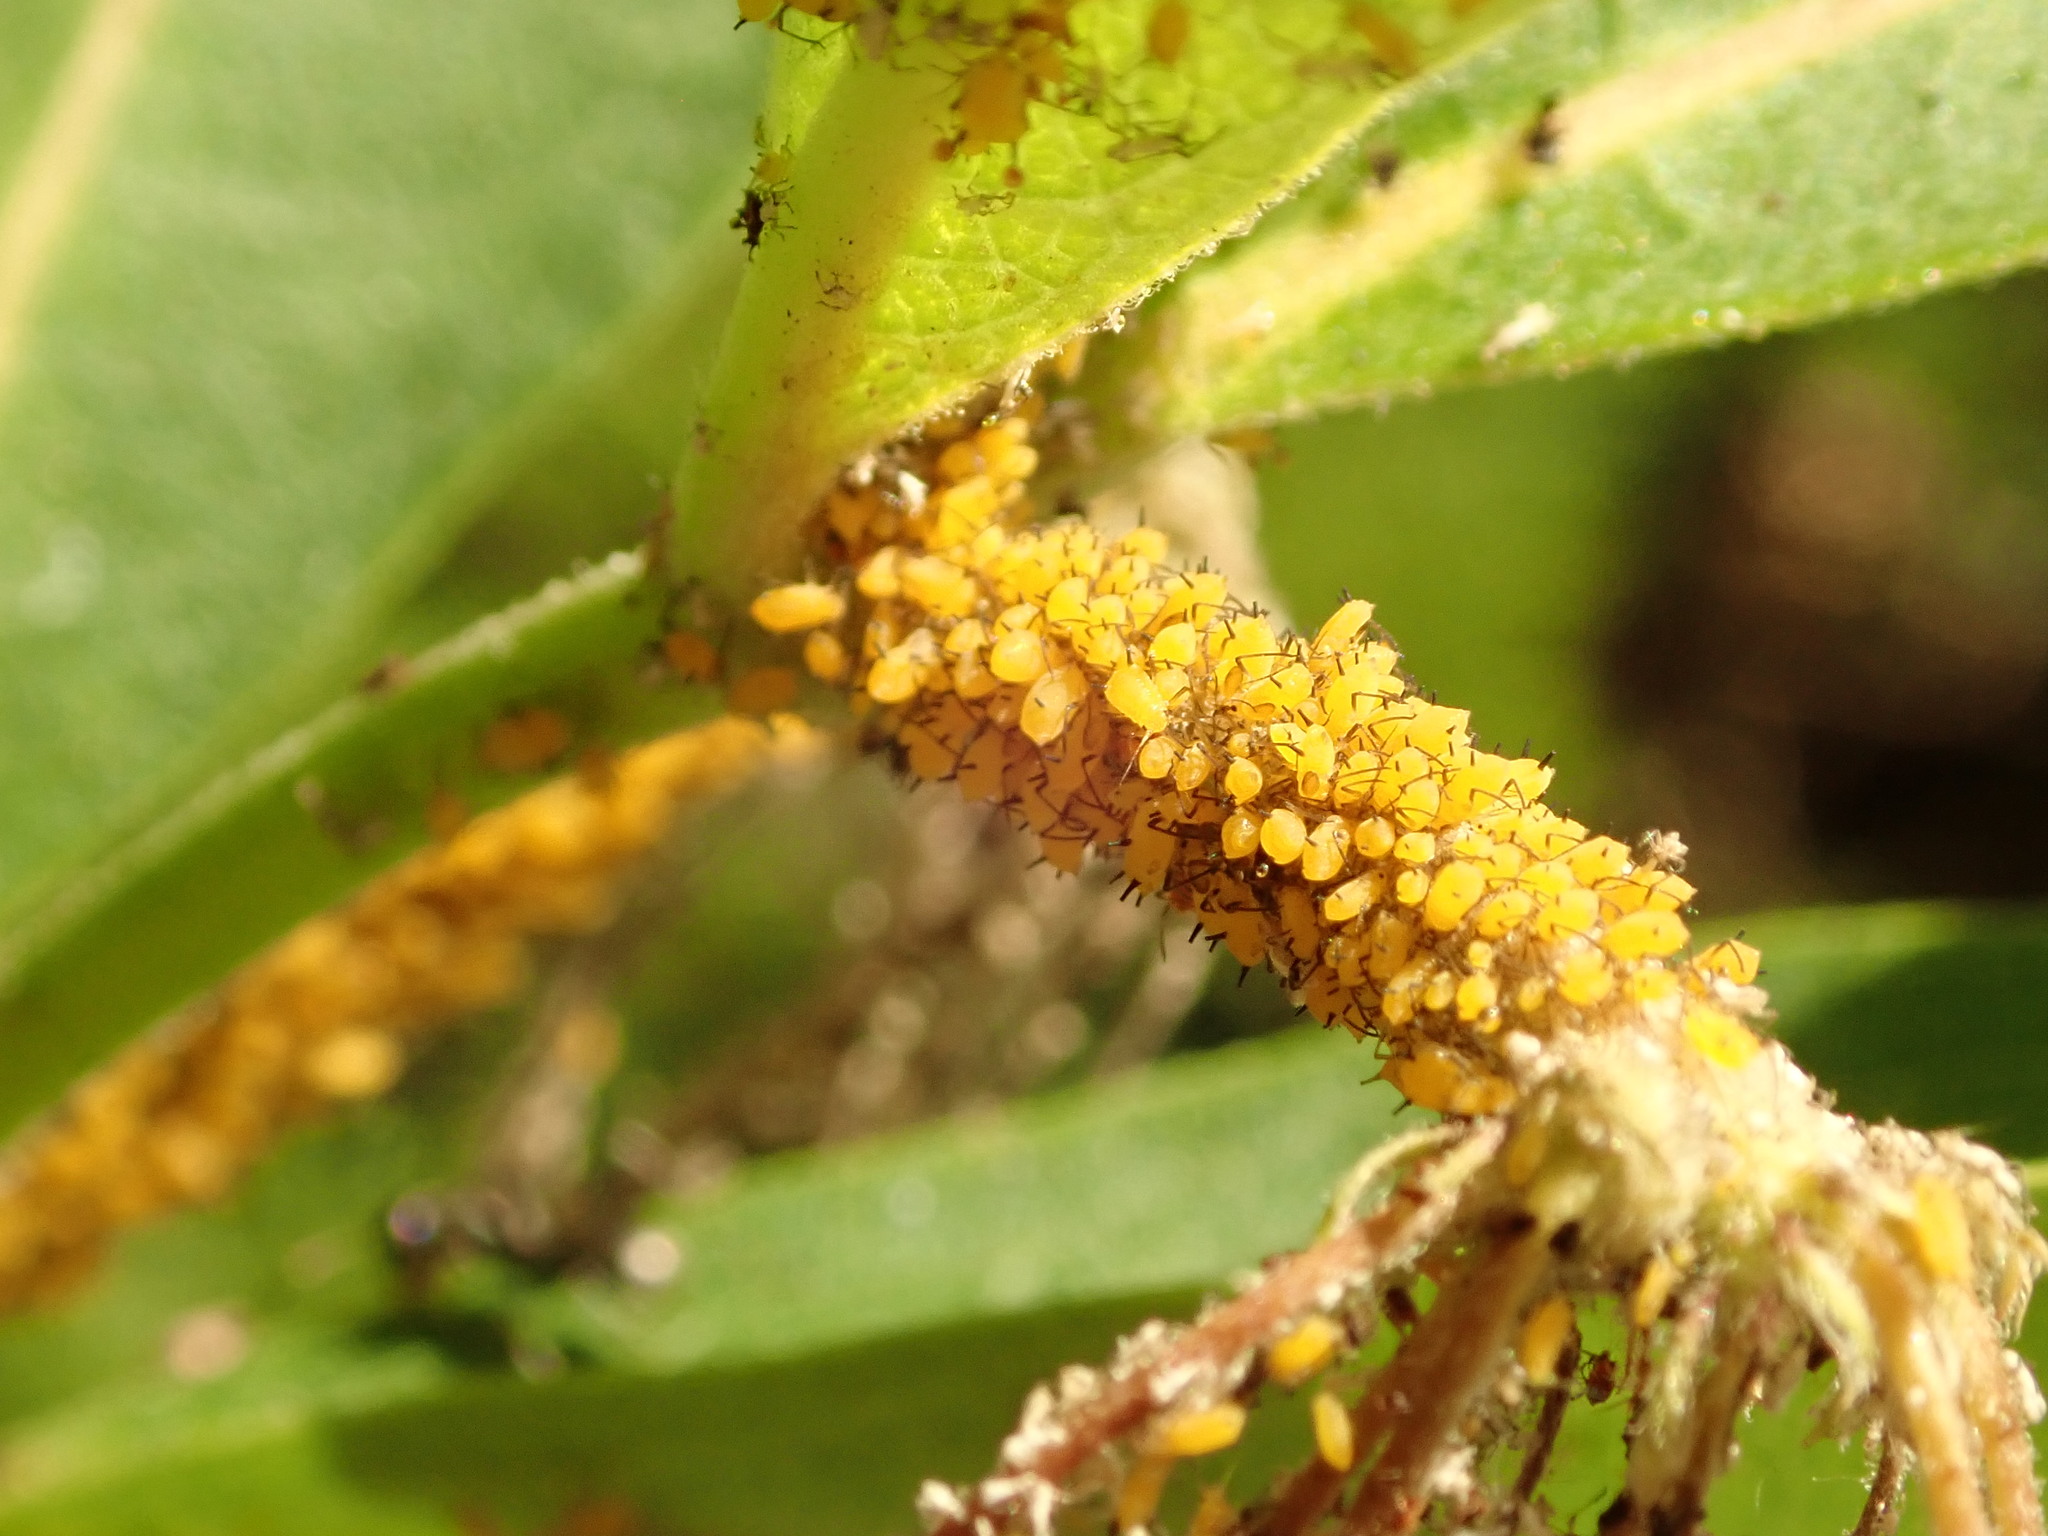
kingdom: Animalia
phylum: Arthropoda
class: Insecta
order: Hemiptera
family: Aphididae
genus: Aphis
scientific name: Aphis nerii
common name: Oleander aphid
